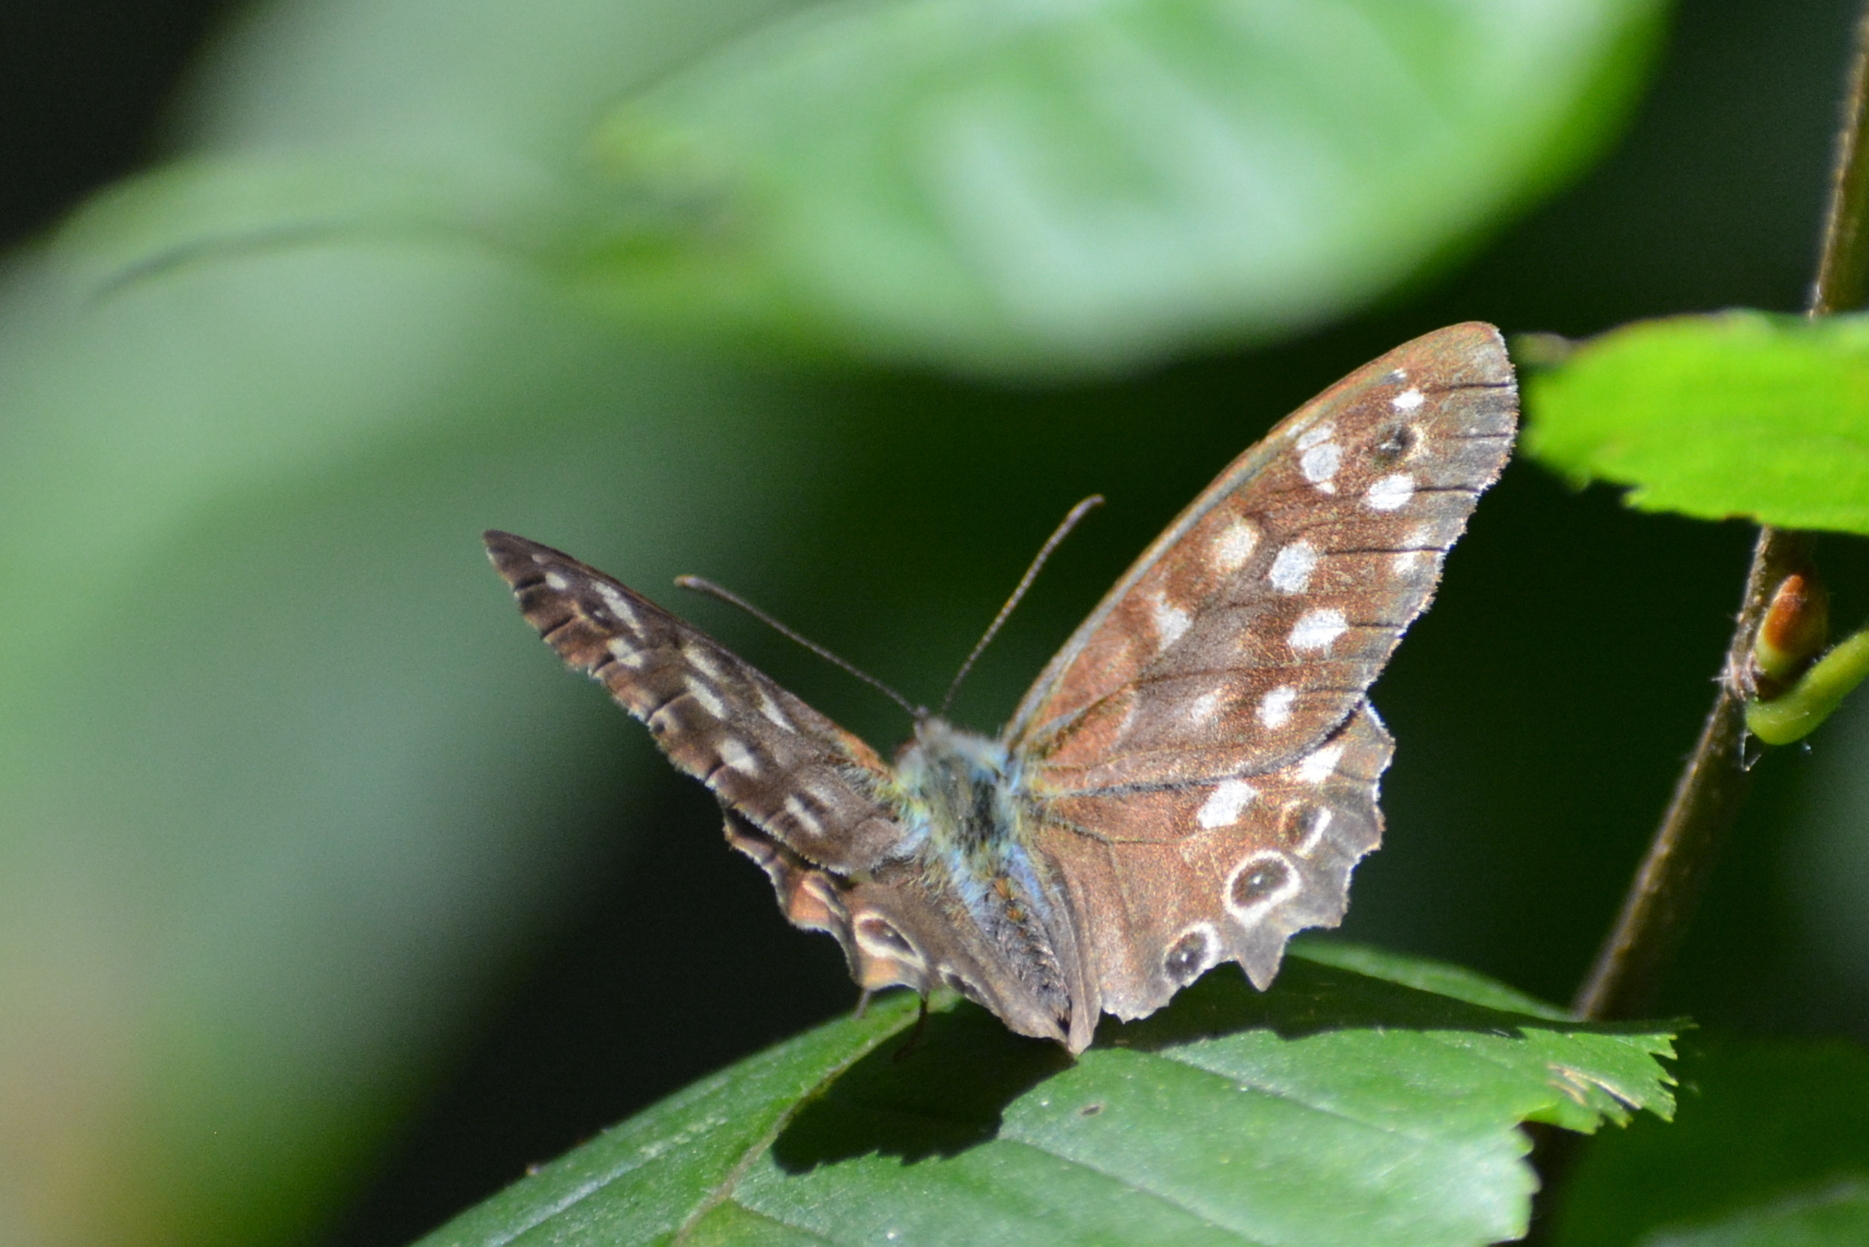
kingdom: Animalia
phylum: Arthropoda
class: Insecta
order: Lepidoptera
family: Nymphalidae
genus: Pararge
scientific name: Pararge aegeria
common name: Speckled wood
